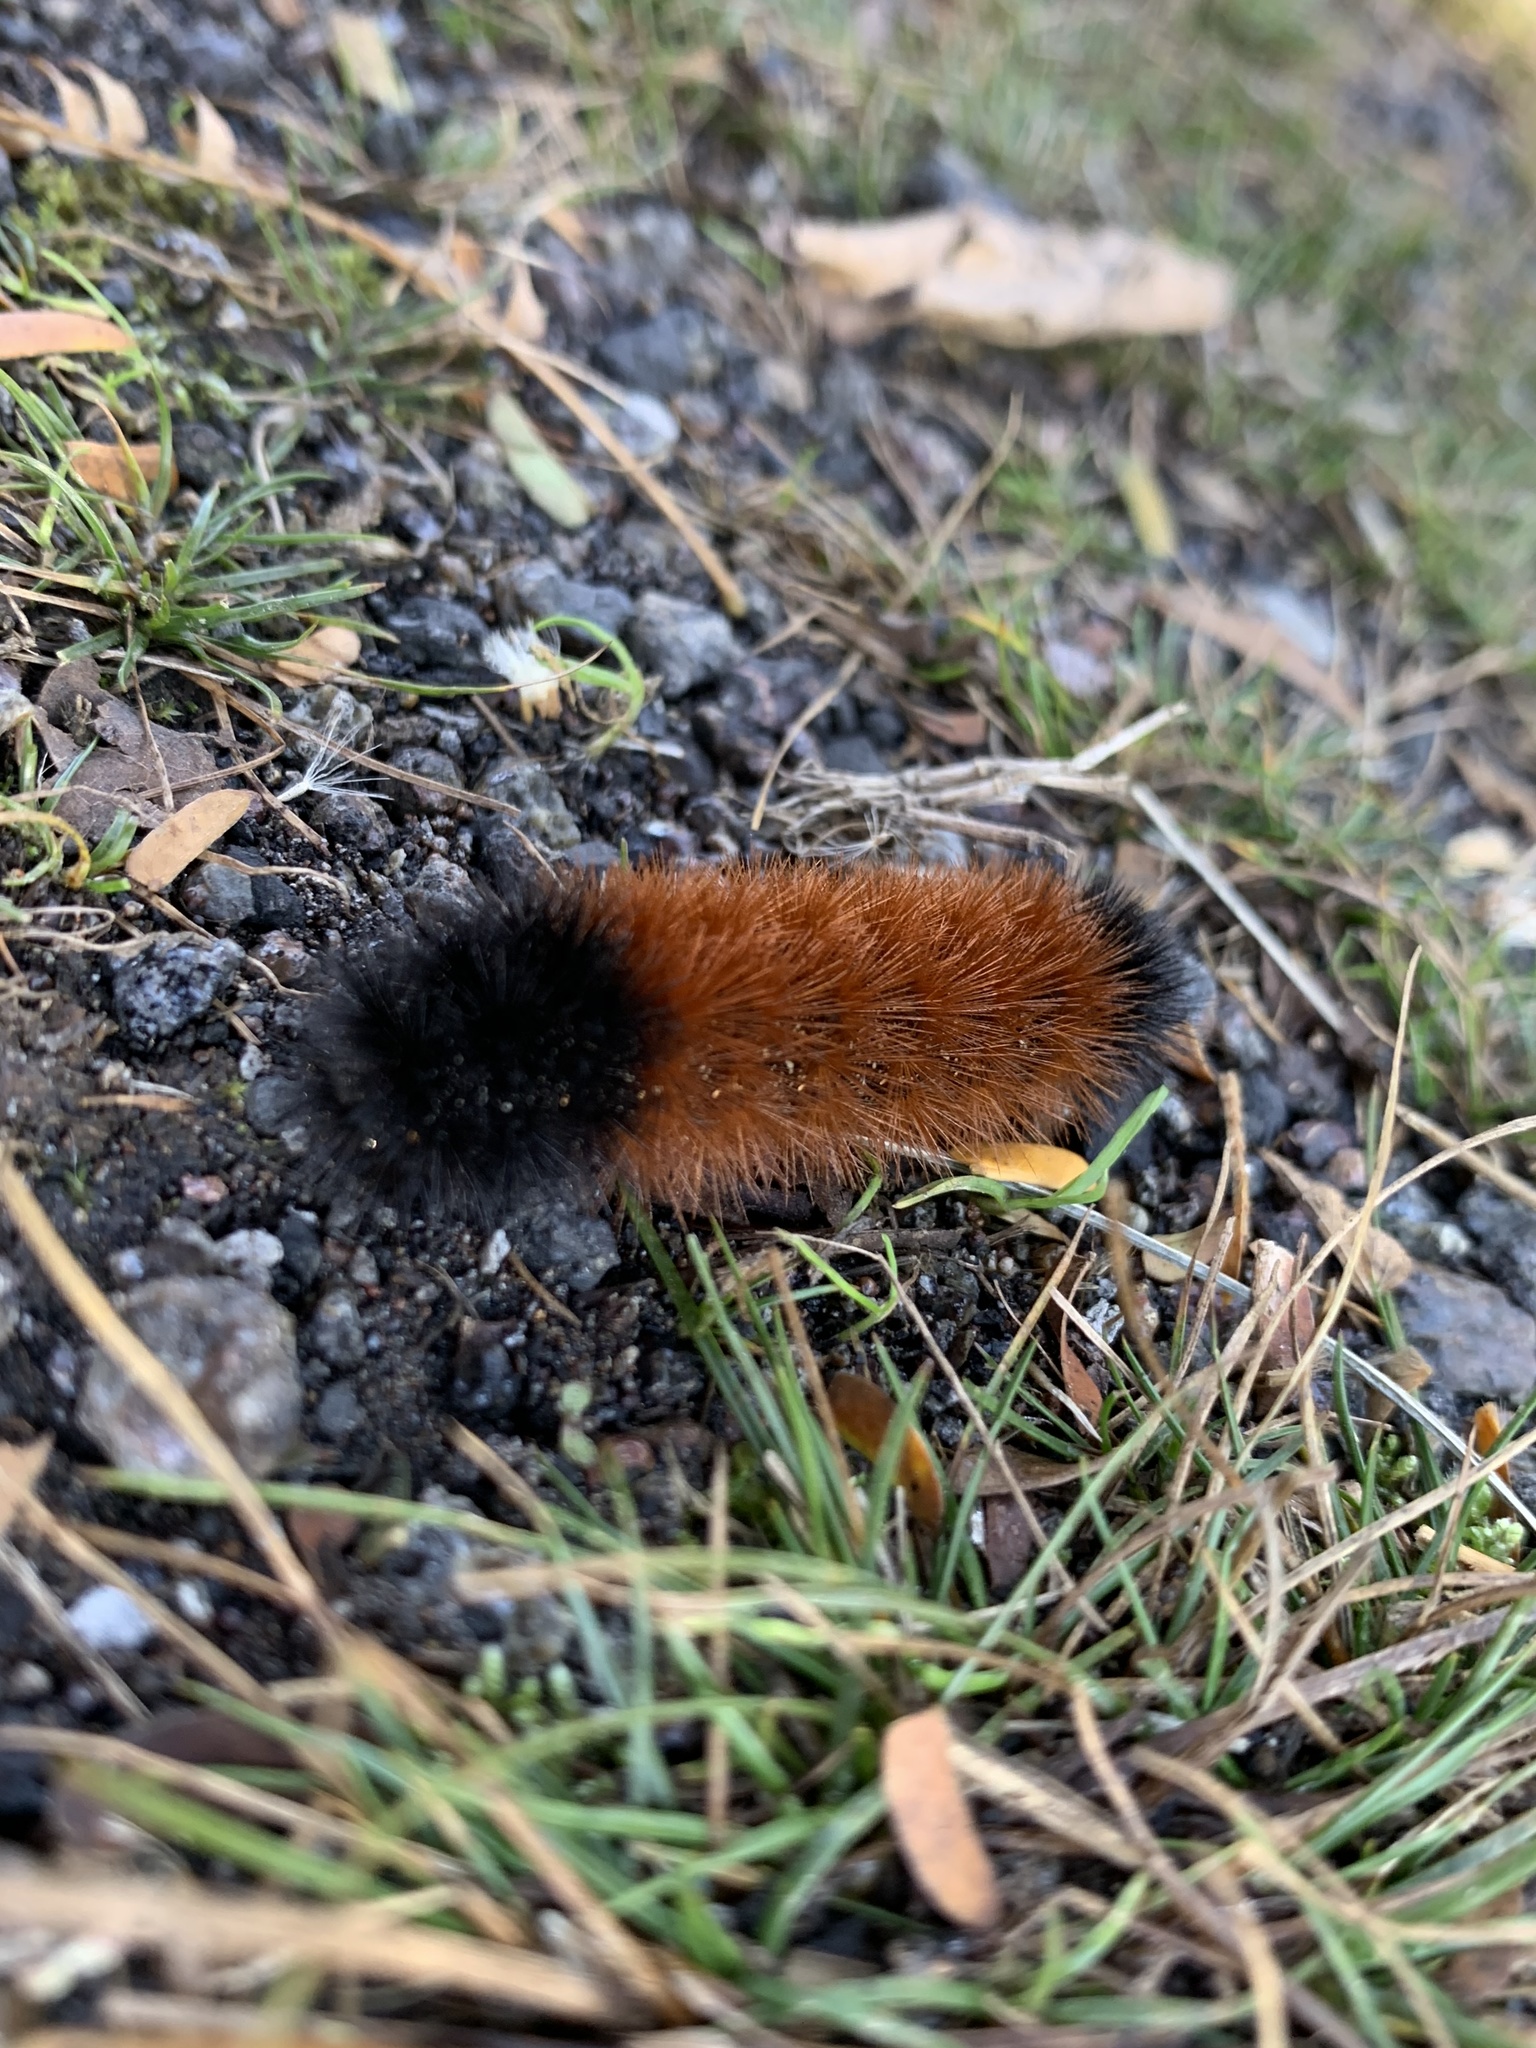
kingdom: Animalia
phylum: Arthropoda
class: Insecta
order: Lepidoptera
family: Erebidae
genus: Pyrrharctia
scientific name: Pyrrharctia isabella
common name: Isabella tiger moth
